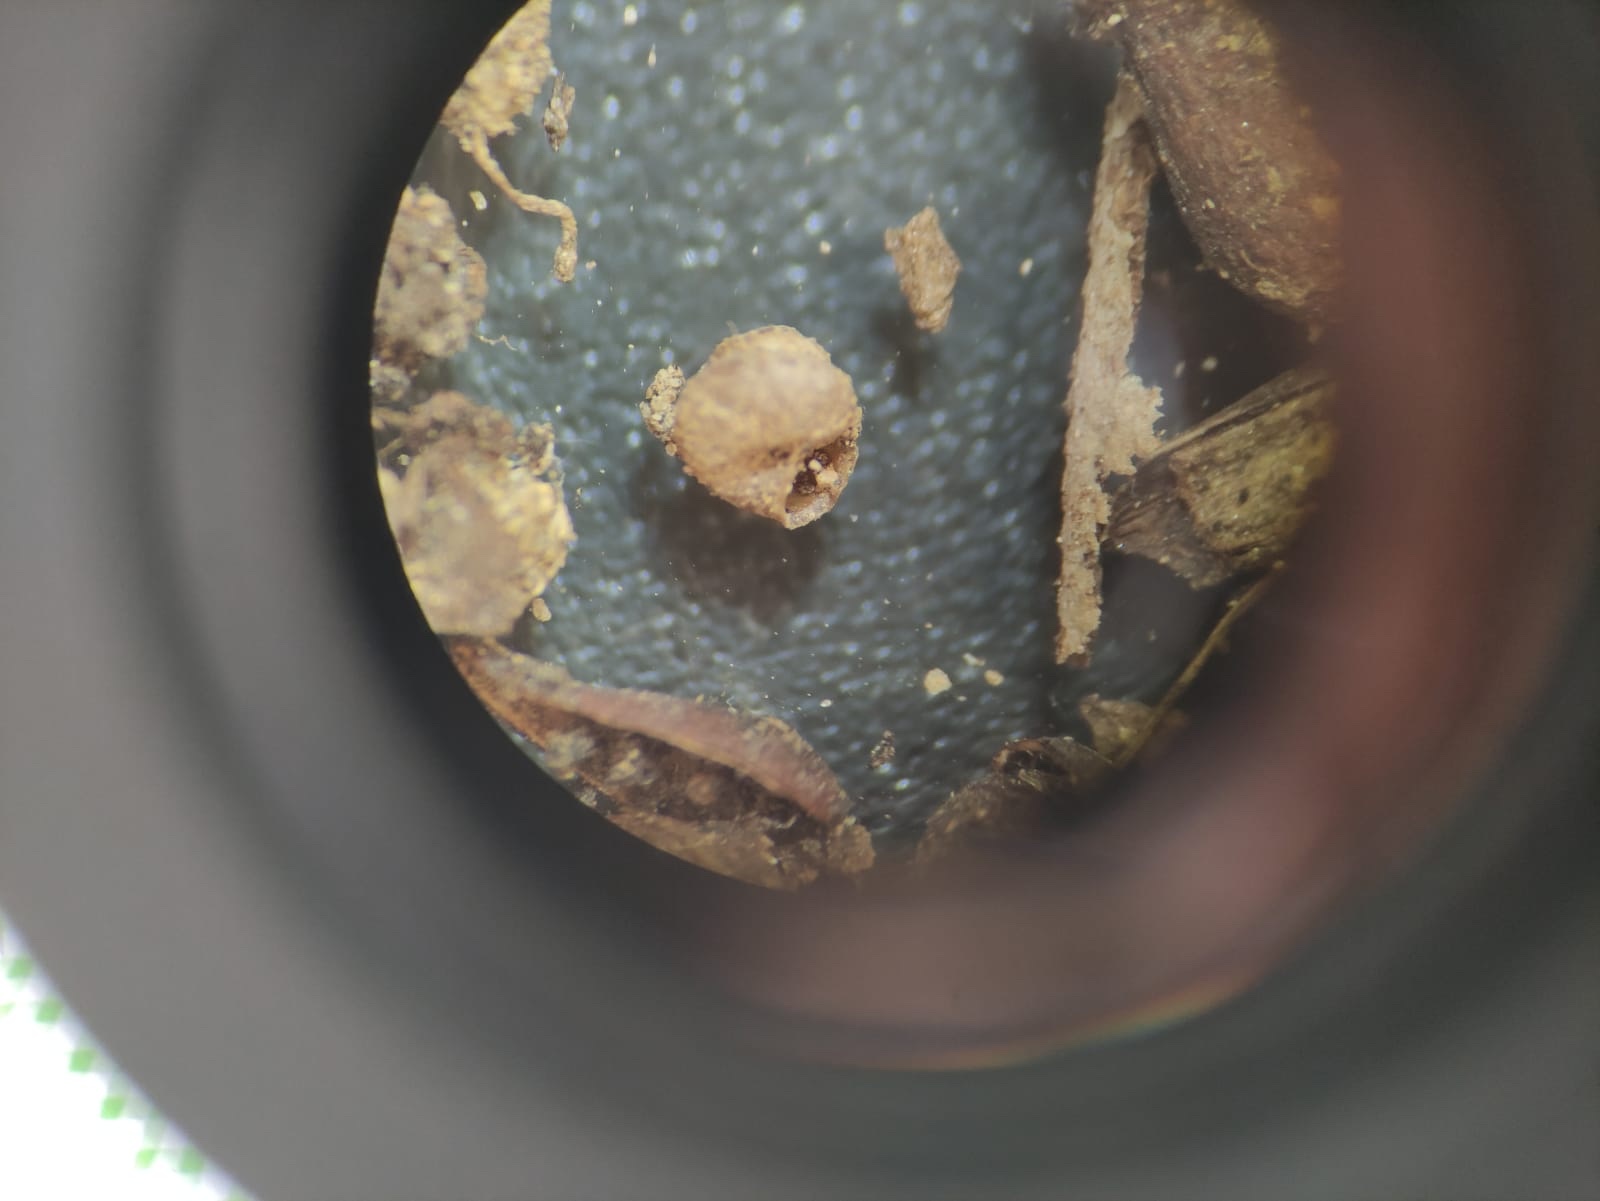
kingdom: Animalia
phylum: Mollusca
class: Gastropoda
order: Stylommatophora
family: Valloniidae
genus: Acanthinula
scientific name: Acanthinula aculeata
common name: Prickly snail
